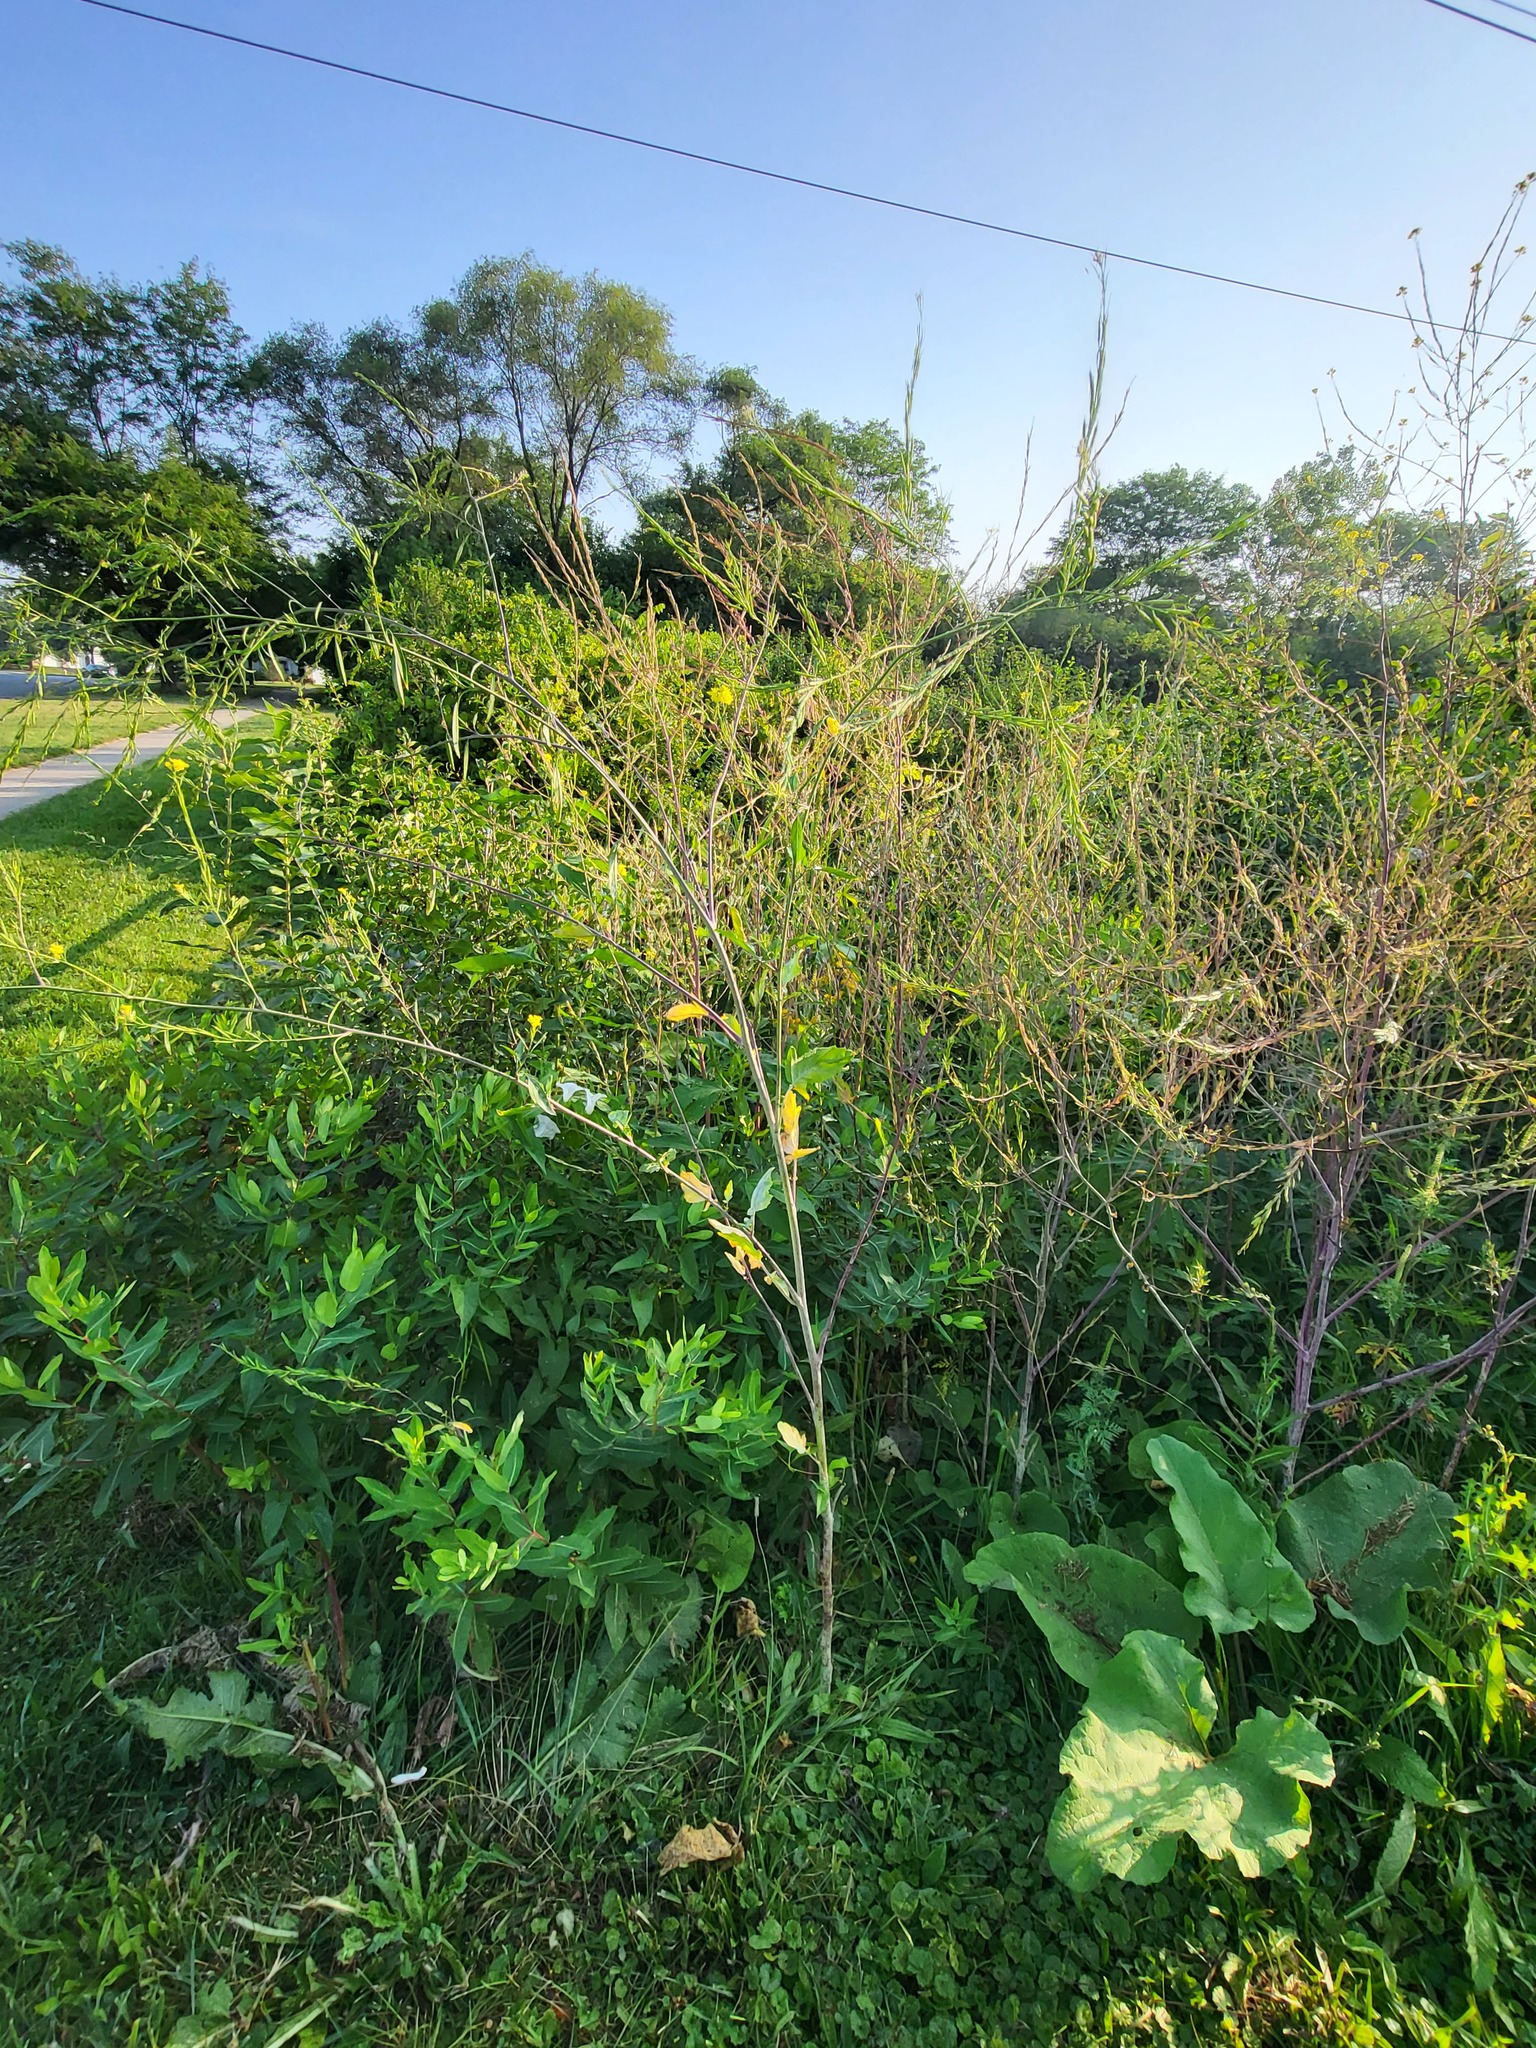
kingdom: Plantae
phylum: Tracheophyta
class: Magnoliopsida
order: Brassicales
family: Brassicaceae
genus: Brassica
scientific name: Brassica nigra
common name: Black mustard
